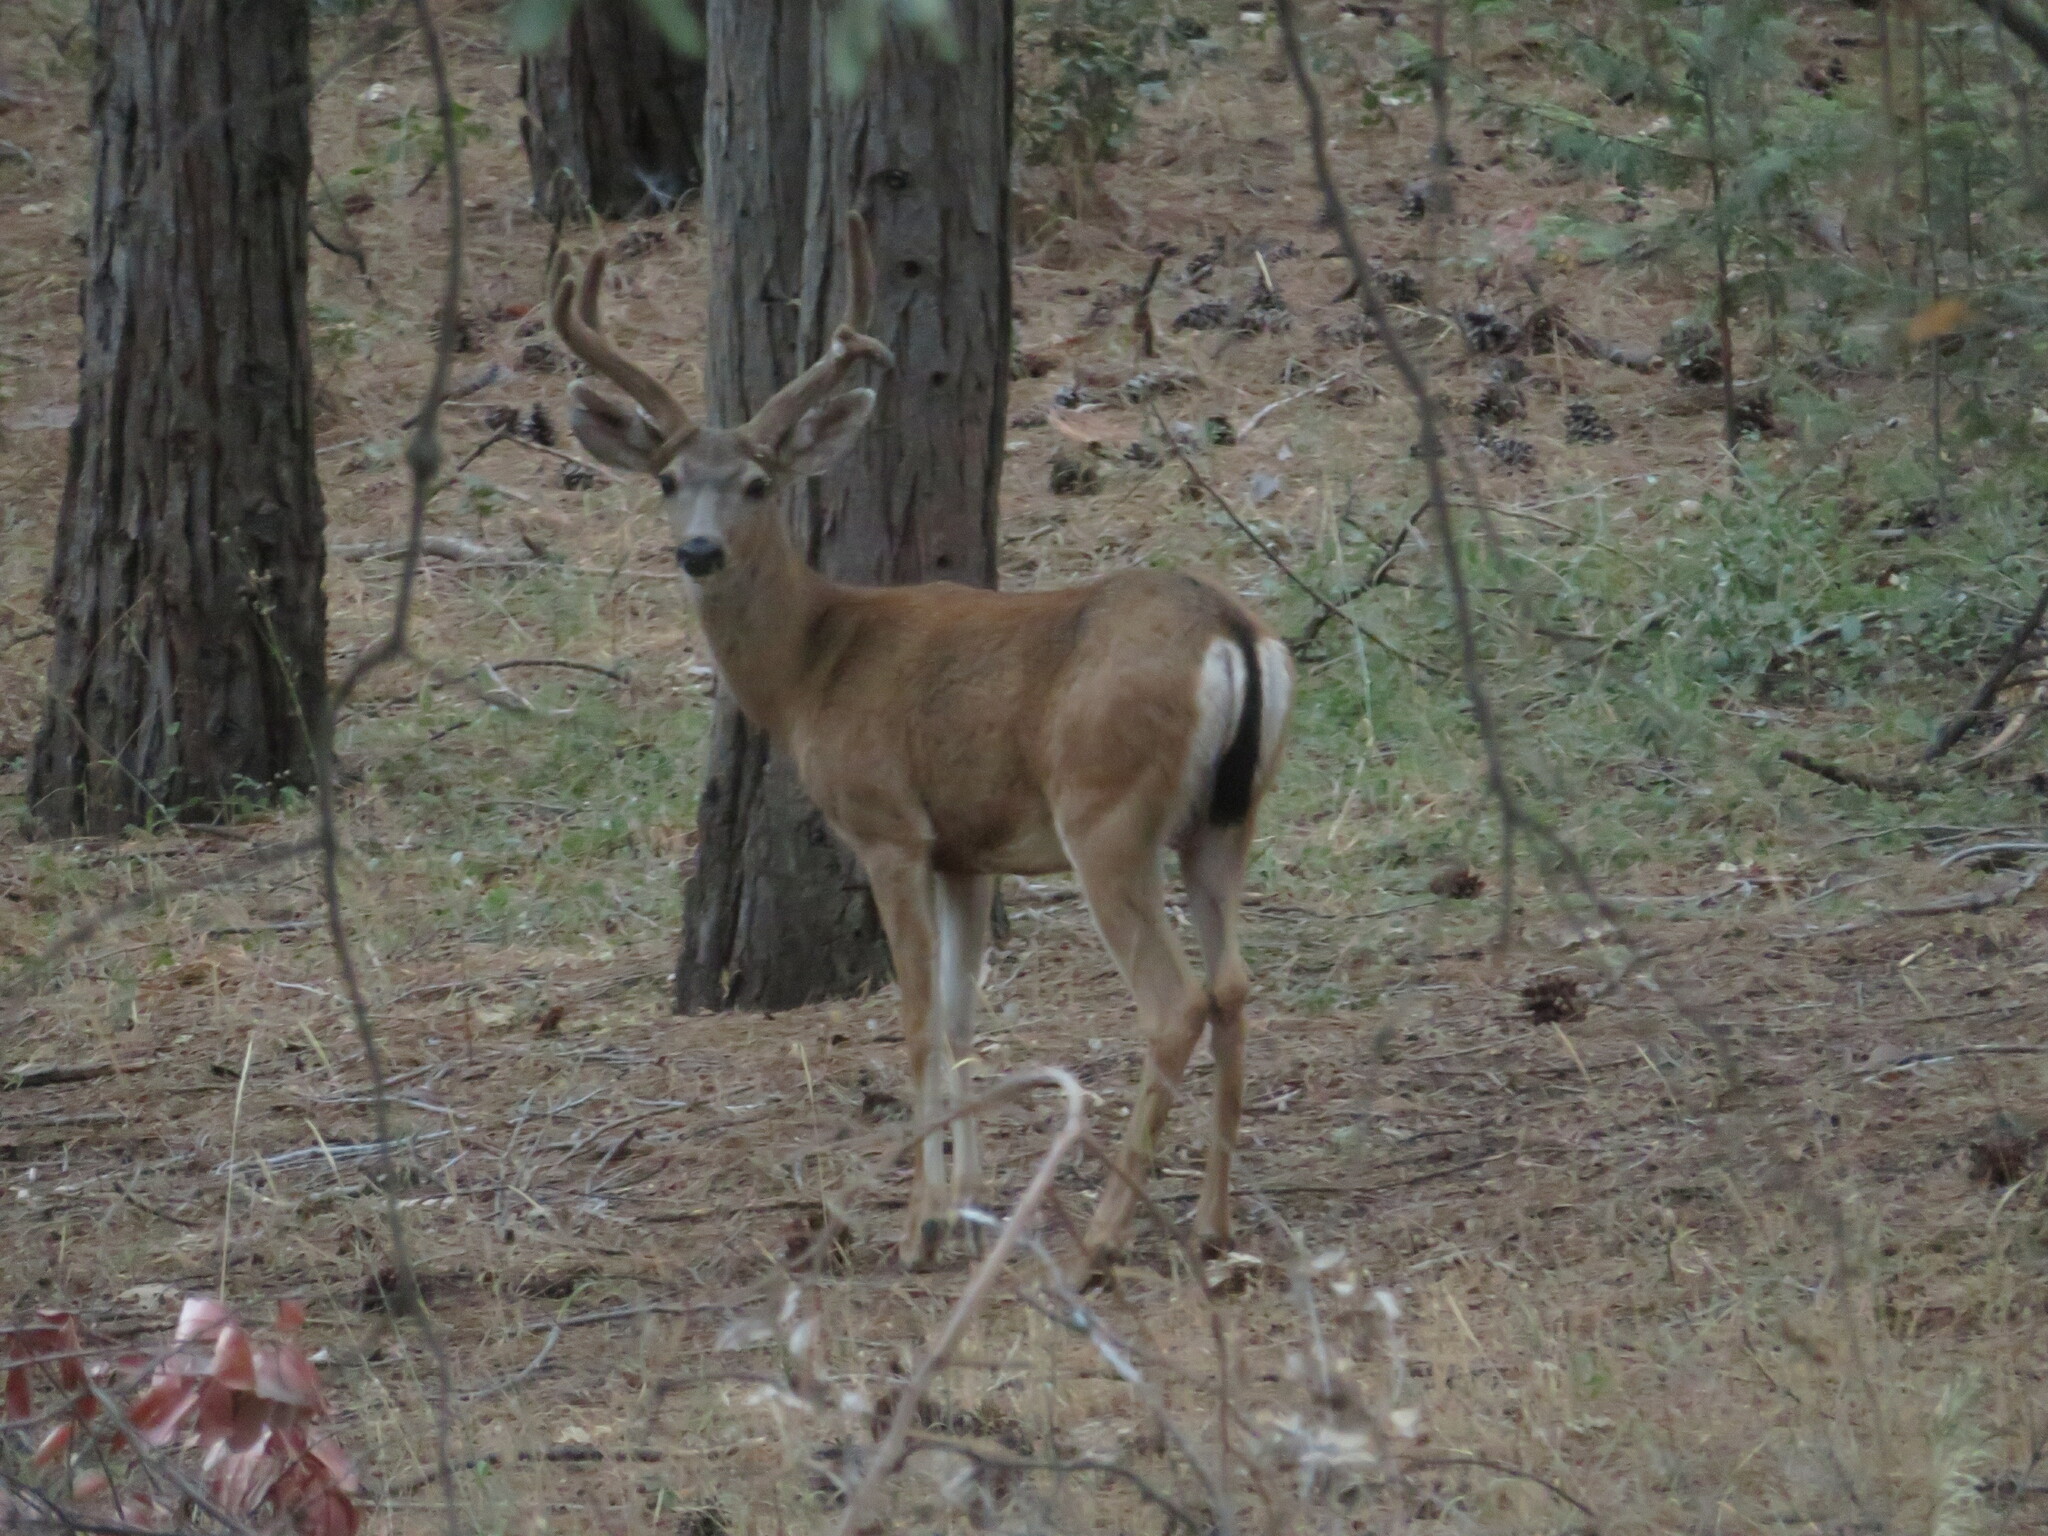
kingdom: Animalia
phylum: Chordata
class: Mammalia
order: Artiodactyla
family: Cervidae
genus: Odocoileus
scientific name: Odocoileus hemionus
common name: Mule deer
